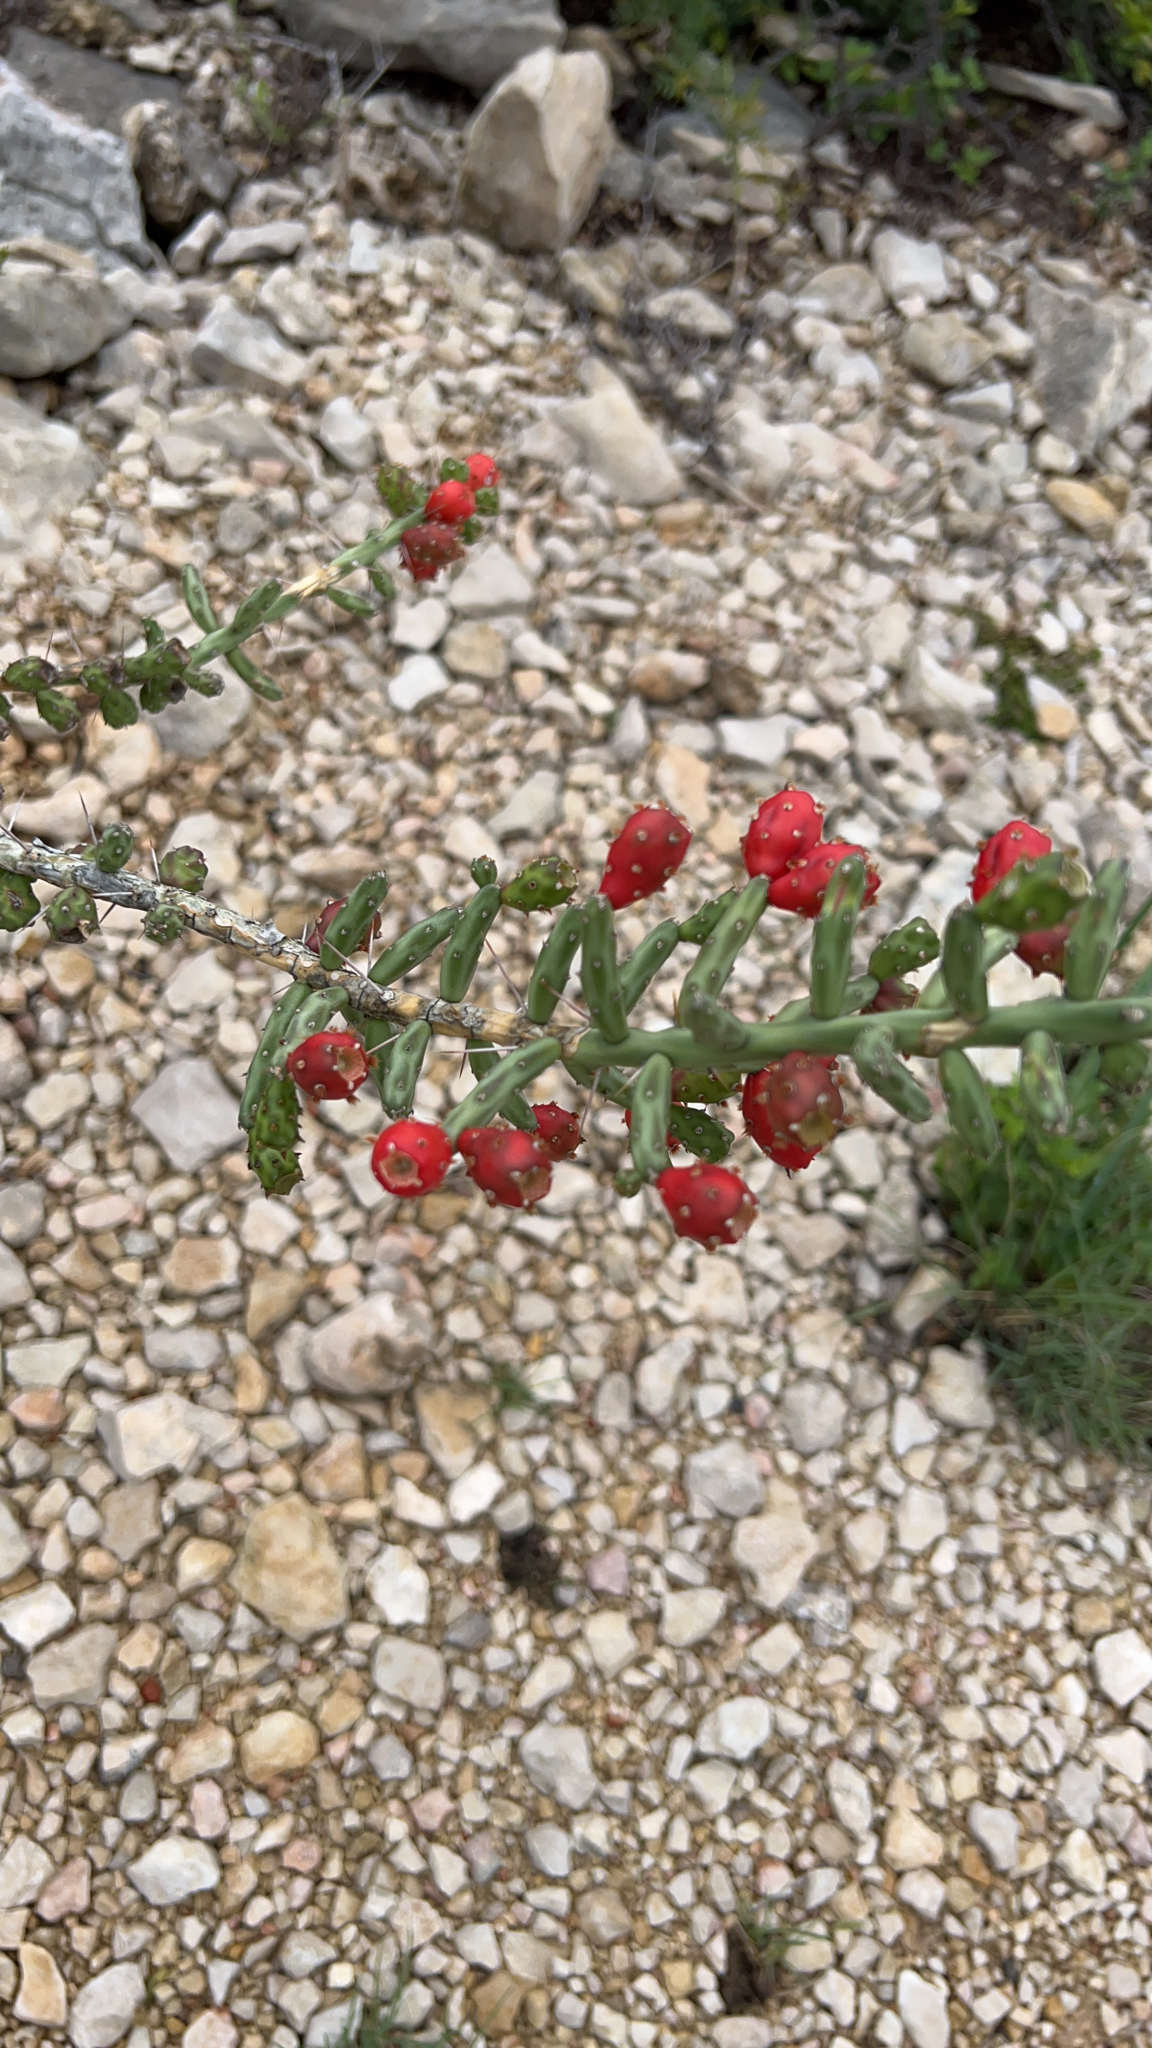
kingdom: Plantae
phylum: Tracheophyta
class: Magnoliopsida
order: Caryophyllales
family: Cactaceae
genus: Cylindropuntia
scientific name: Cylindropuntia leptocaulis
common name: Christmas cactus
